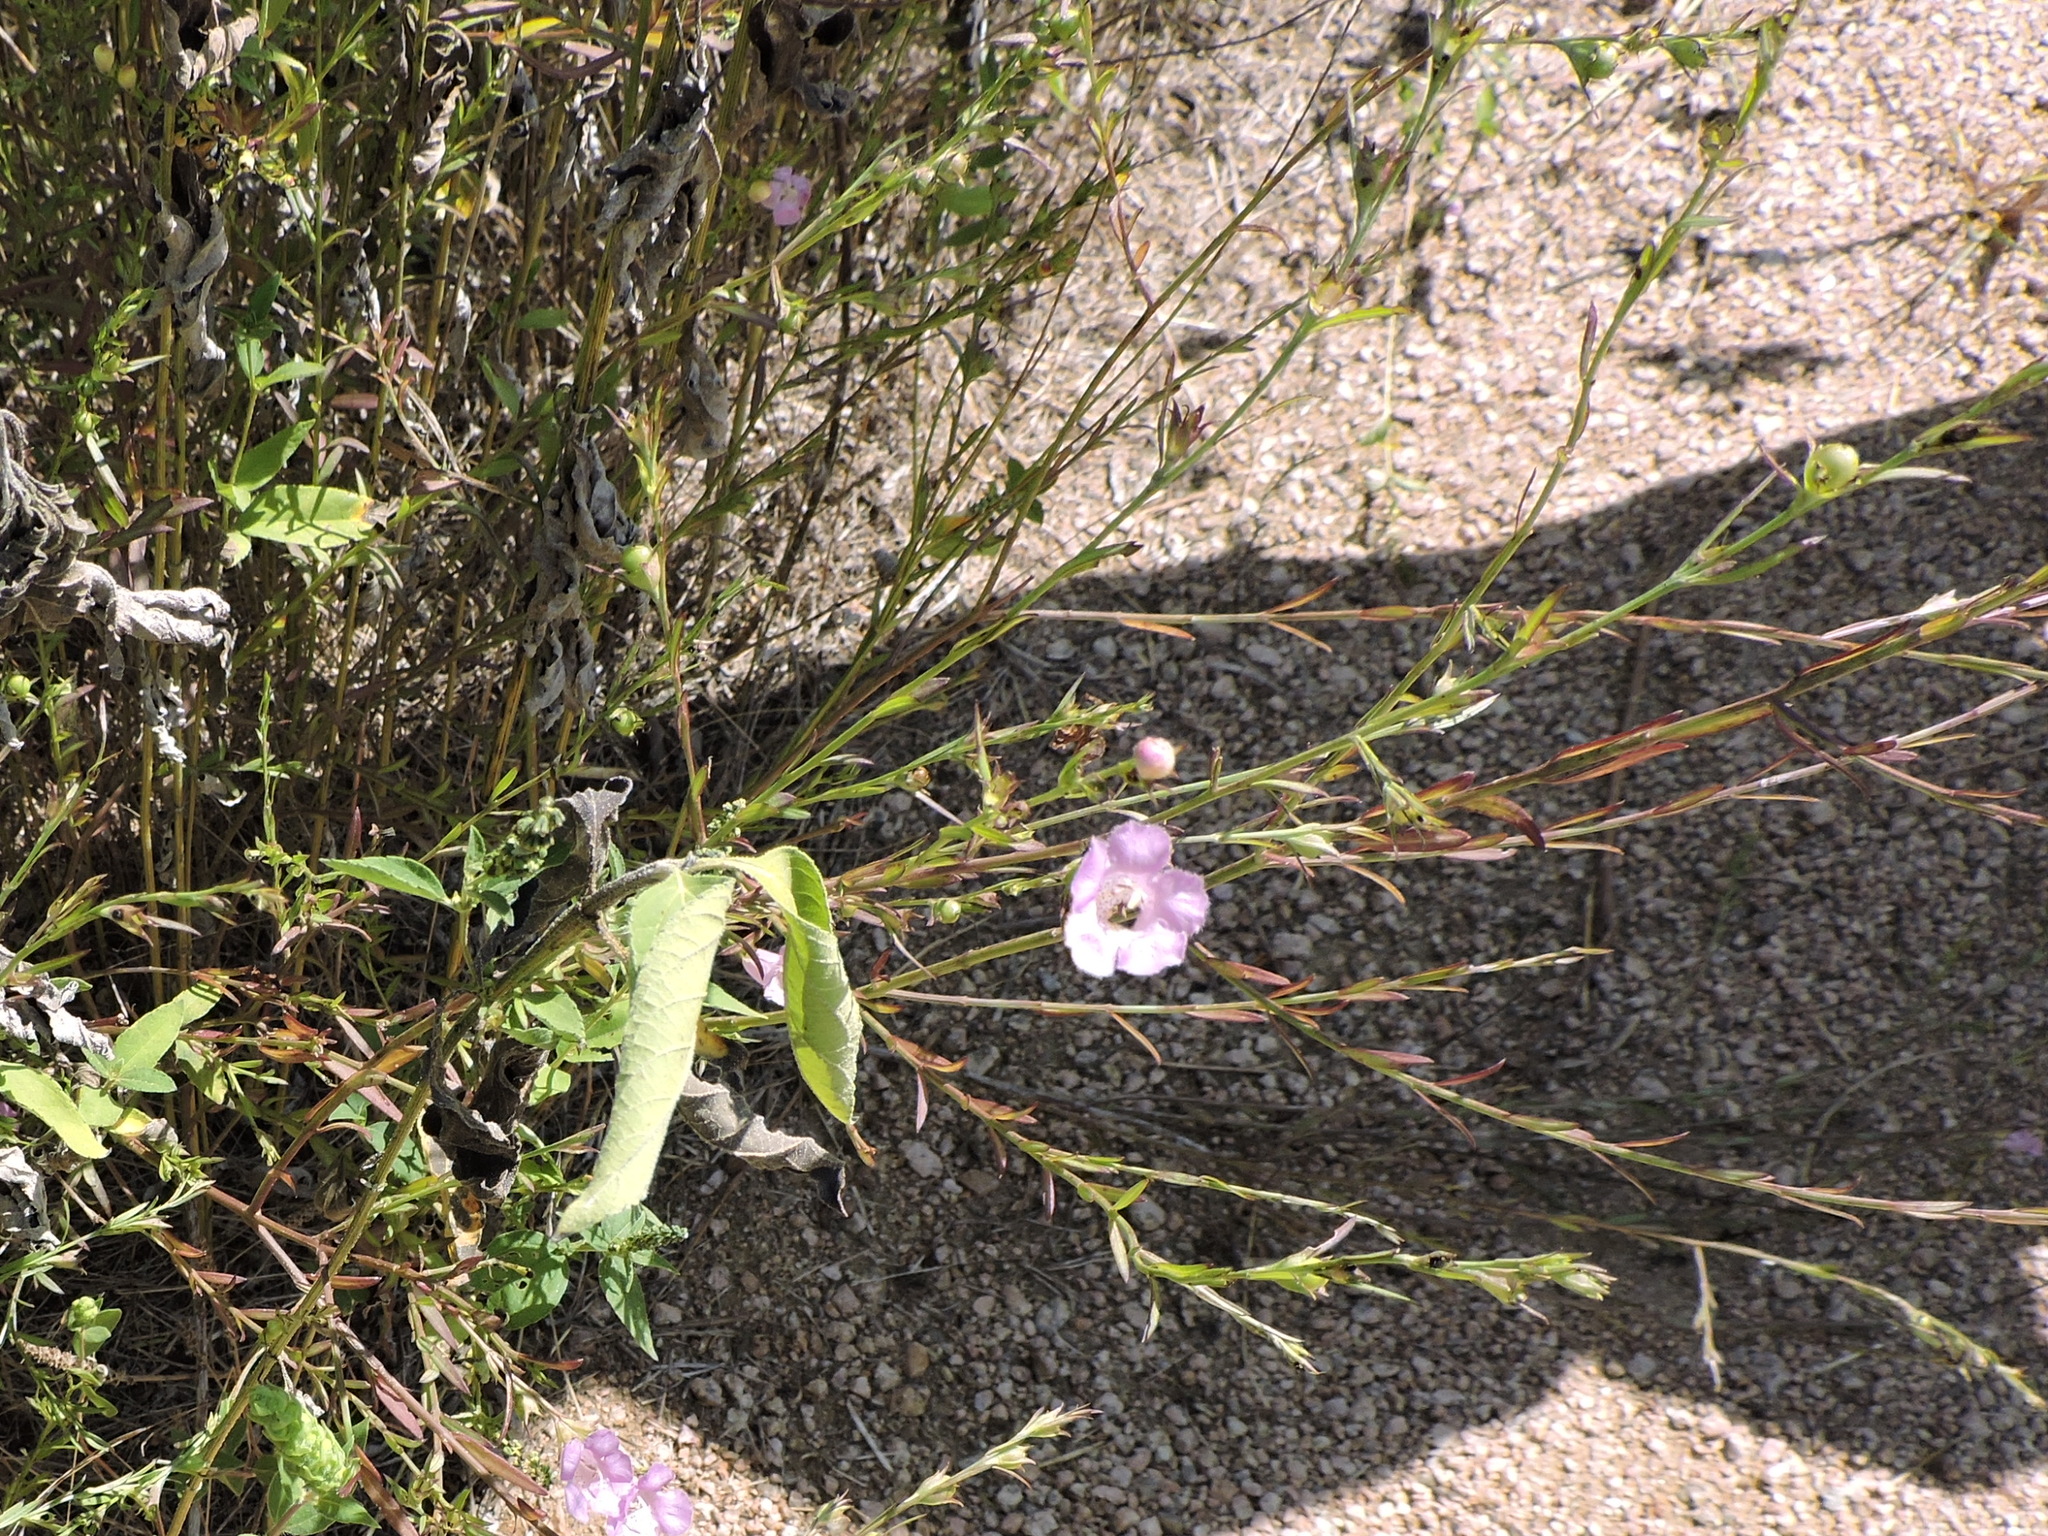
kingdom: Plantae
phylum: Tracheophyta
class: Magnoliopsida
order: Lamiales
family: Orobanchaceae
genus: Agalinis
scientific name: Agalinis heterophylla
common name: Prairie agalinis
